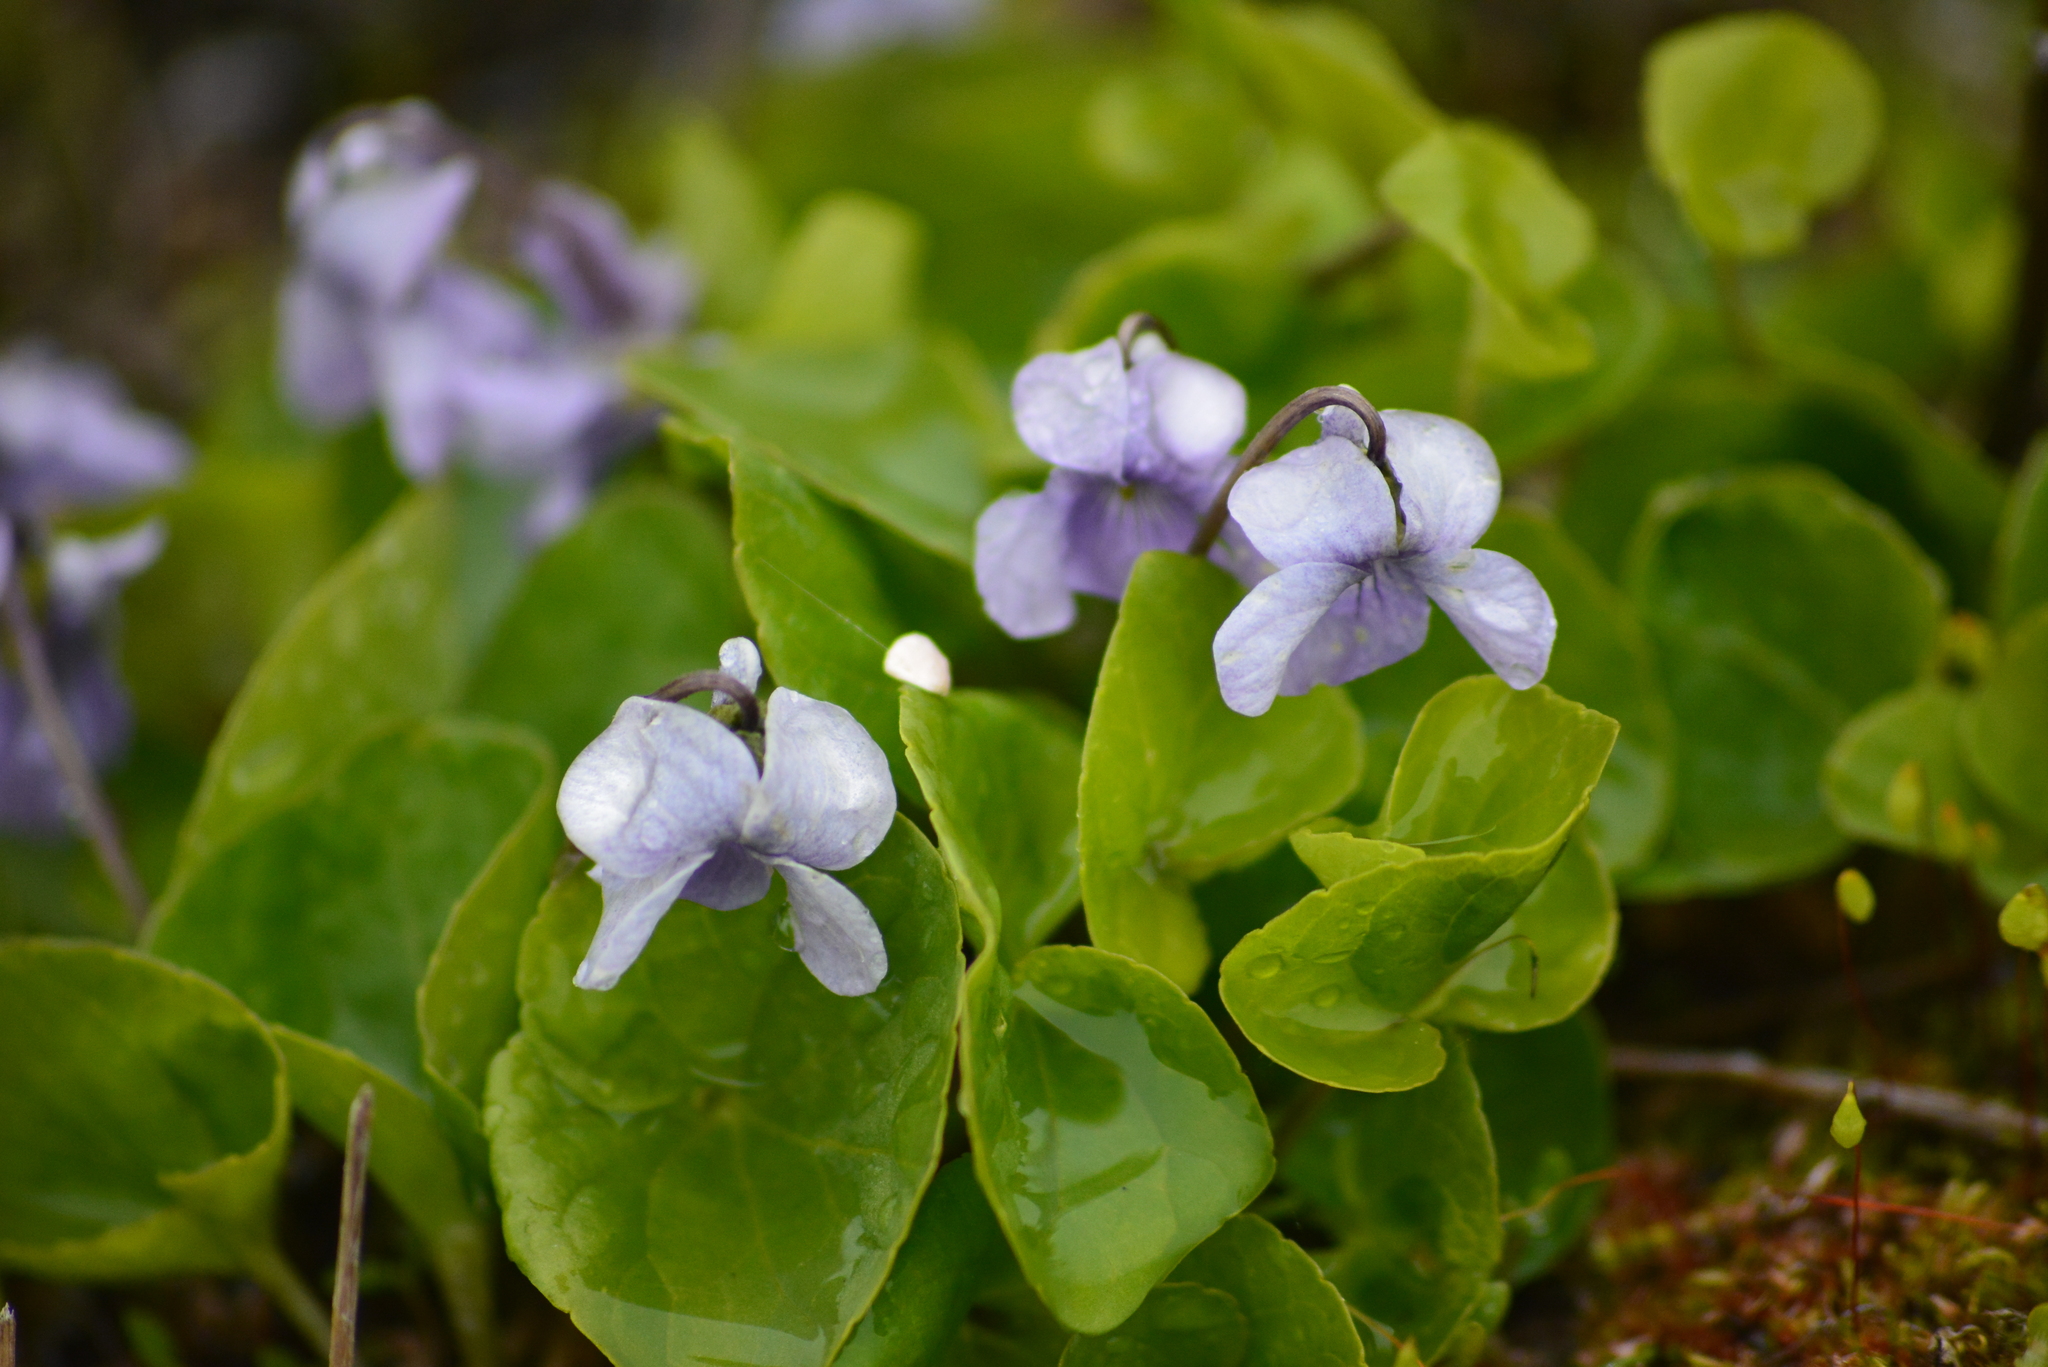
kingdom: Plantae
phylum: Tracheophyta
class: Magnoliopsida
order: Malpighiales
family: Violaceae
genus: Viola
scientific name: Viola epipsila
